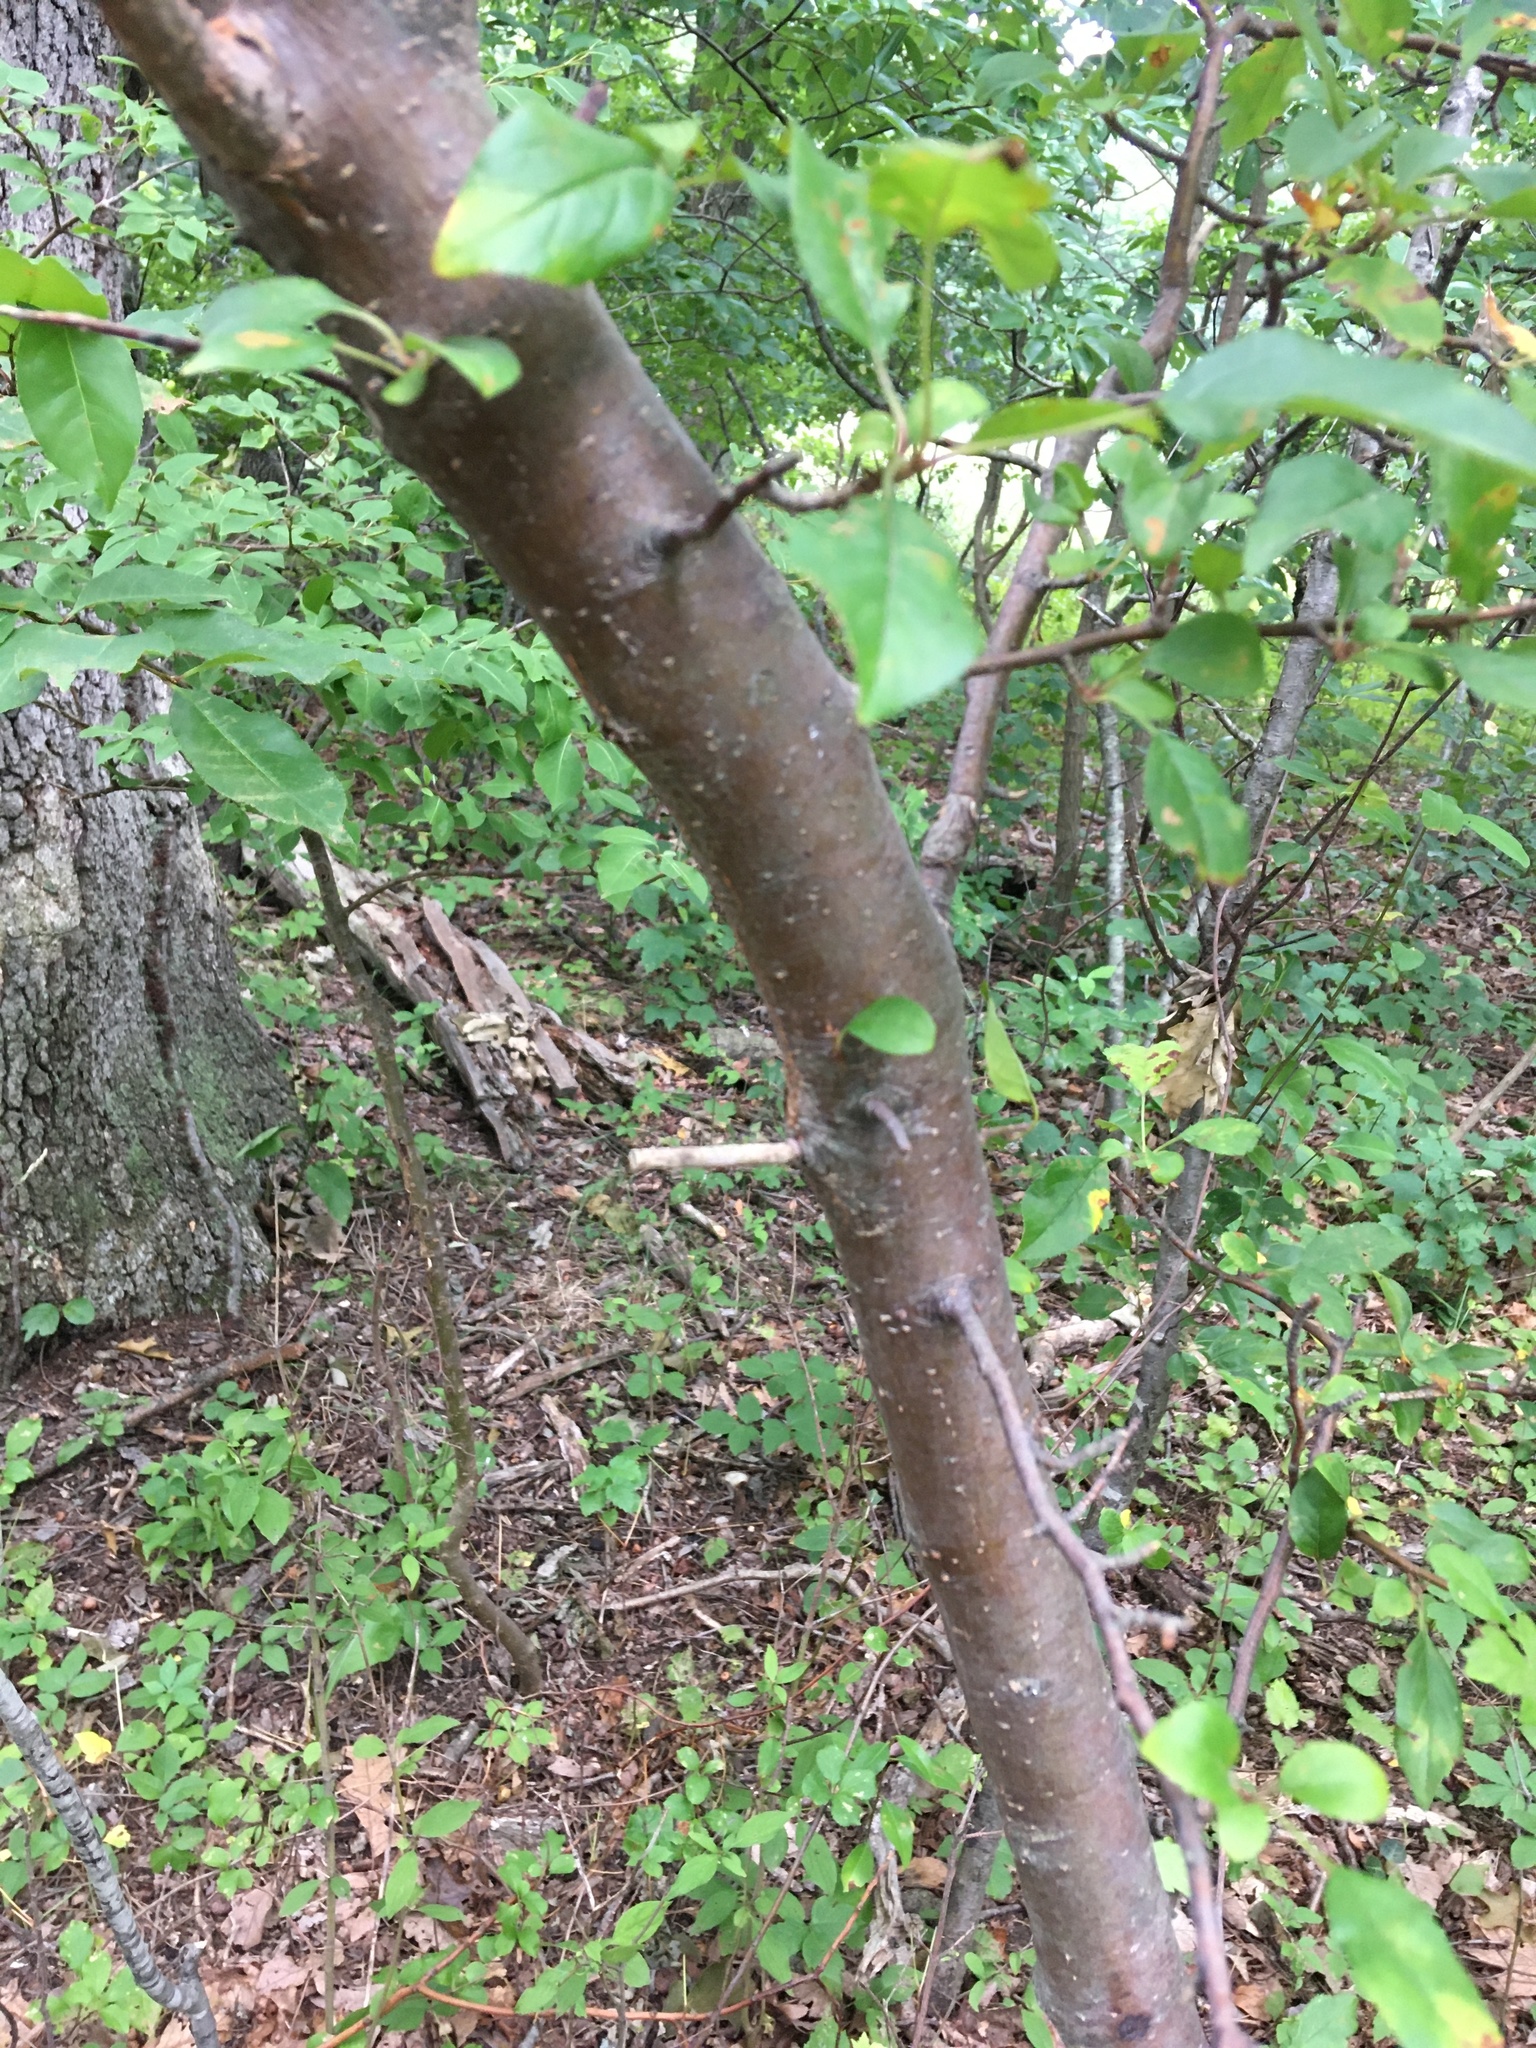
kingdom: Plantae
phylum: Tracheophyta
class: Magnoliopsida
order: Rosales
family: Rosaceae
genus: Malus
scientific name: Malus toringo
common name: Japanese crabapple
